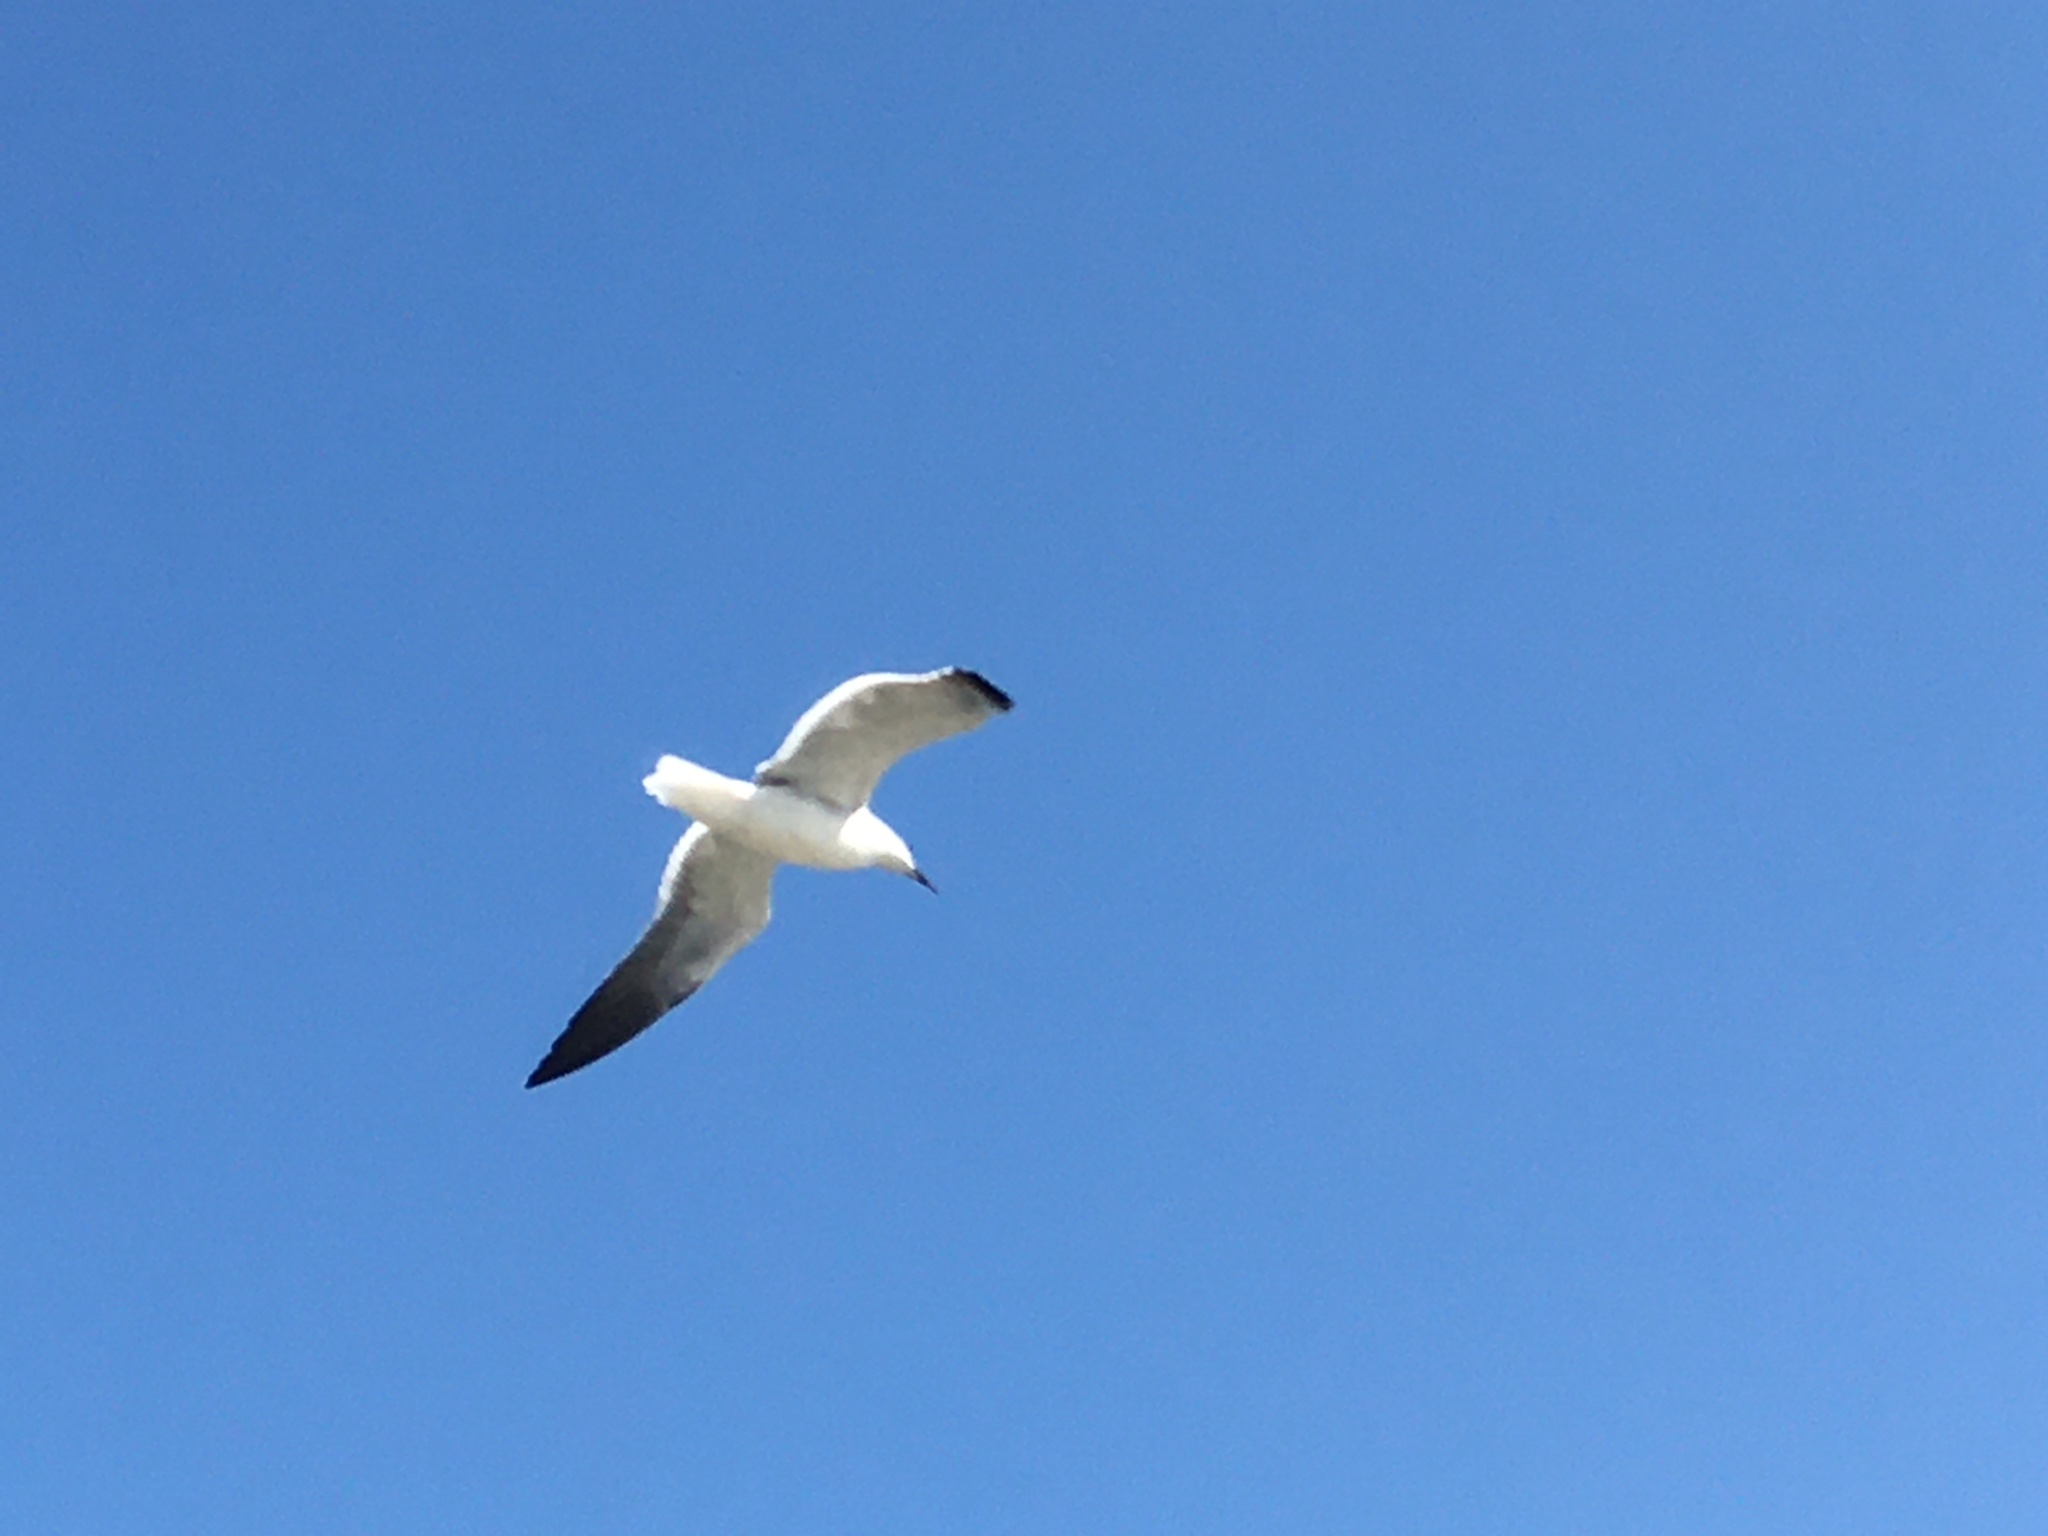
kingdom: Animalia
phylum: Chordata
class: Aves
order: Charadriiformes
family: Laridae
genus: Leucophaeus
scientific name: Leucophaeus atricilla
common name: Laughing gull
